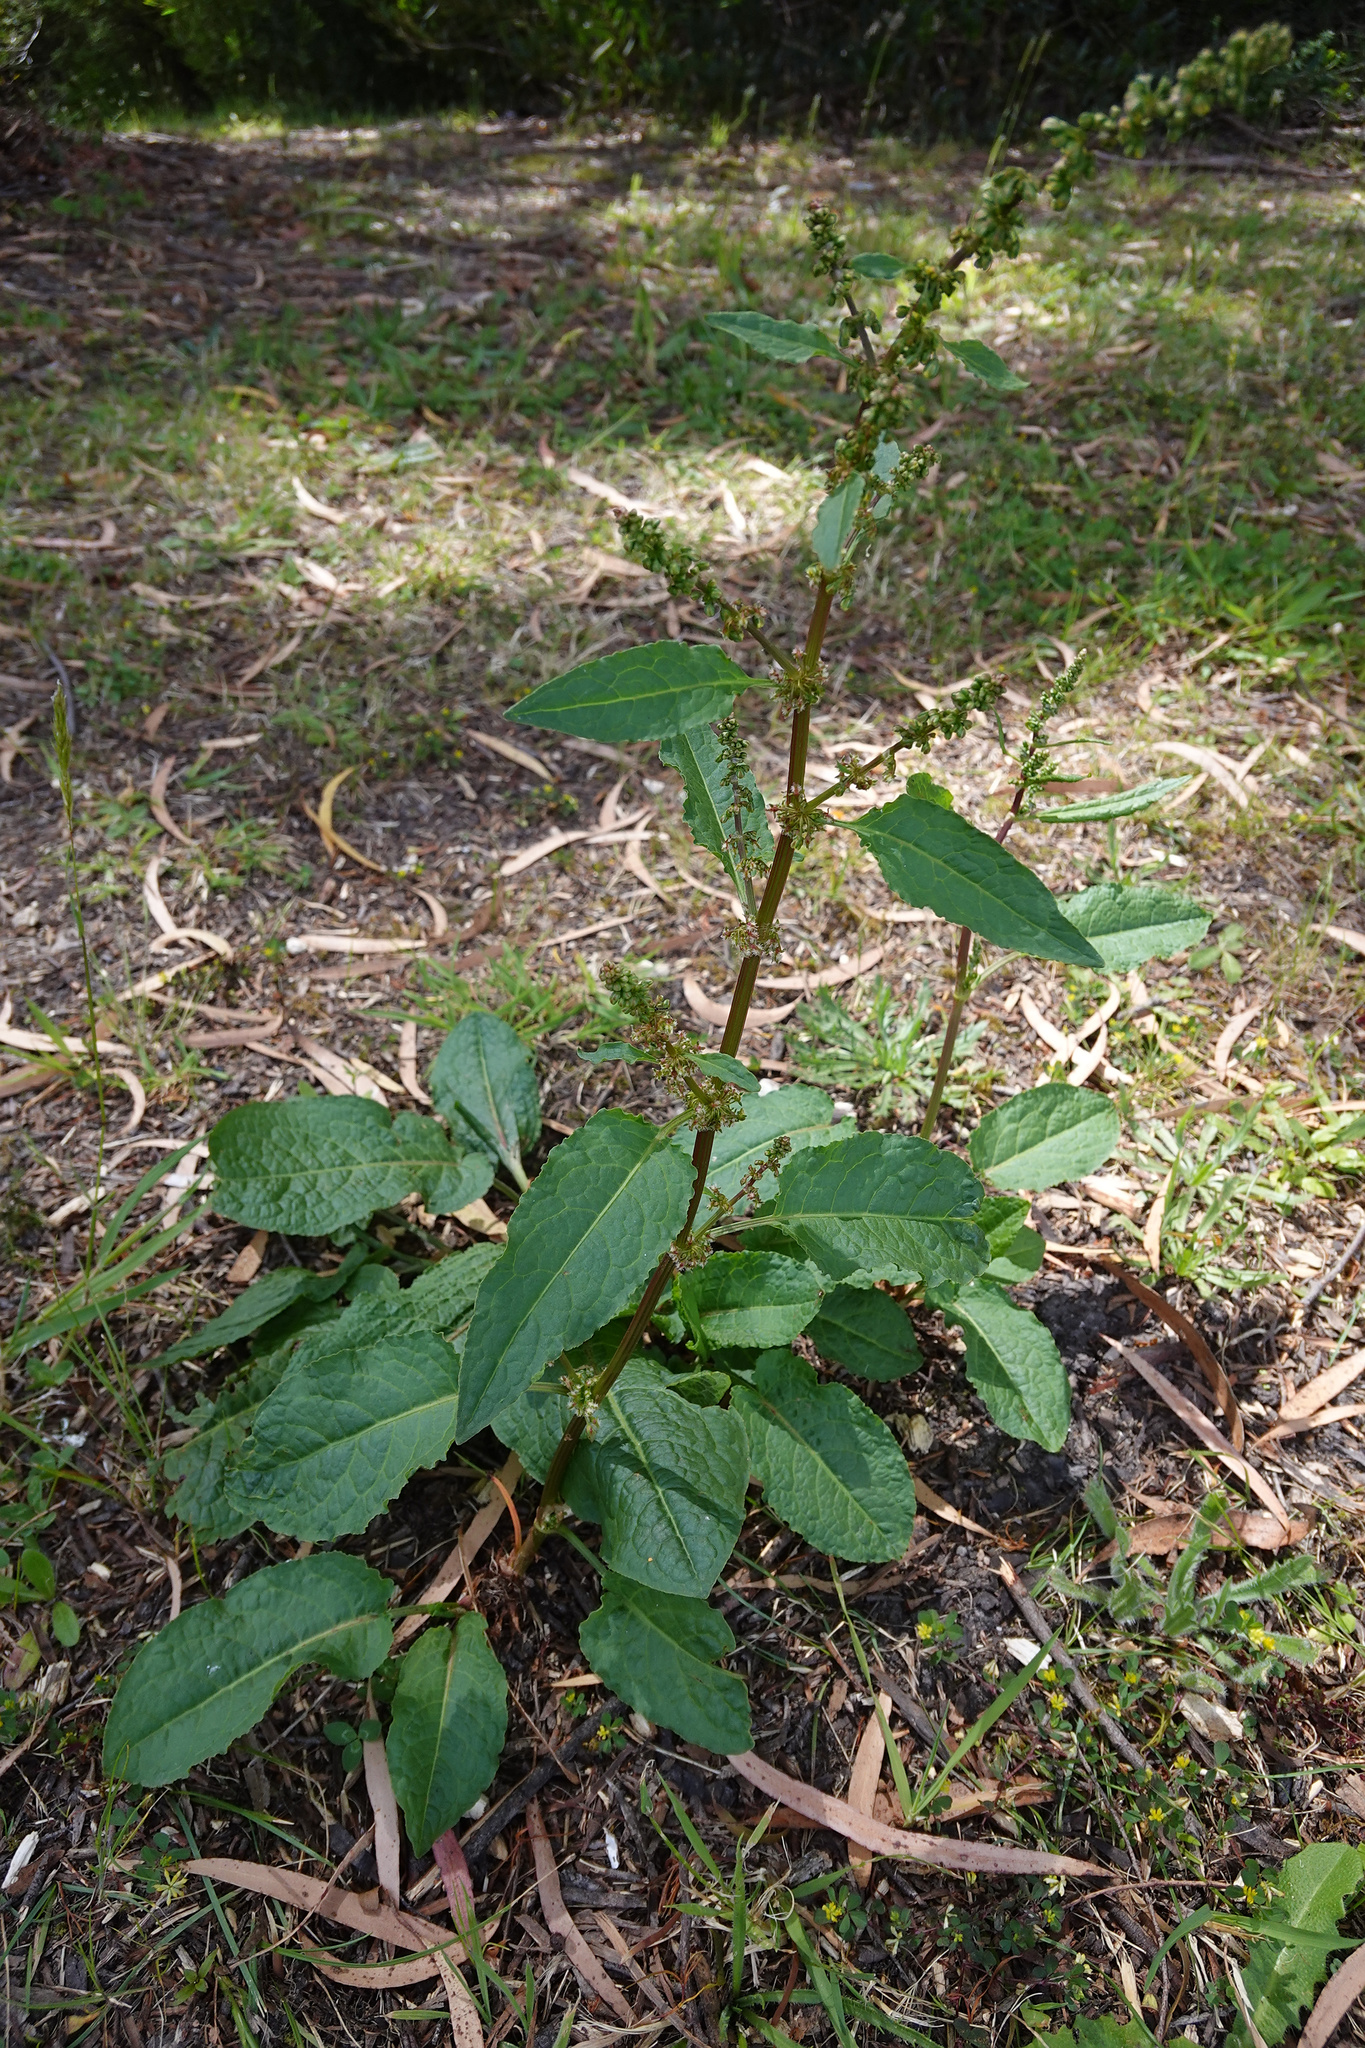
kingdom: Plantae
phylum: Tracheophyta
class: Magnoliopsida
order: Caryophyllales
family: Polygonaceae
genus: Rumex
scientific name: Rumex obtusifolius
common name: Bitter dock
